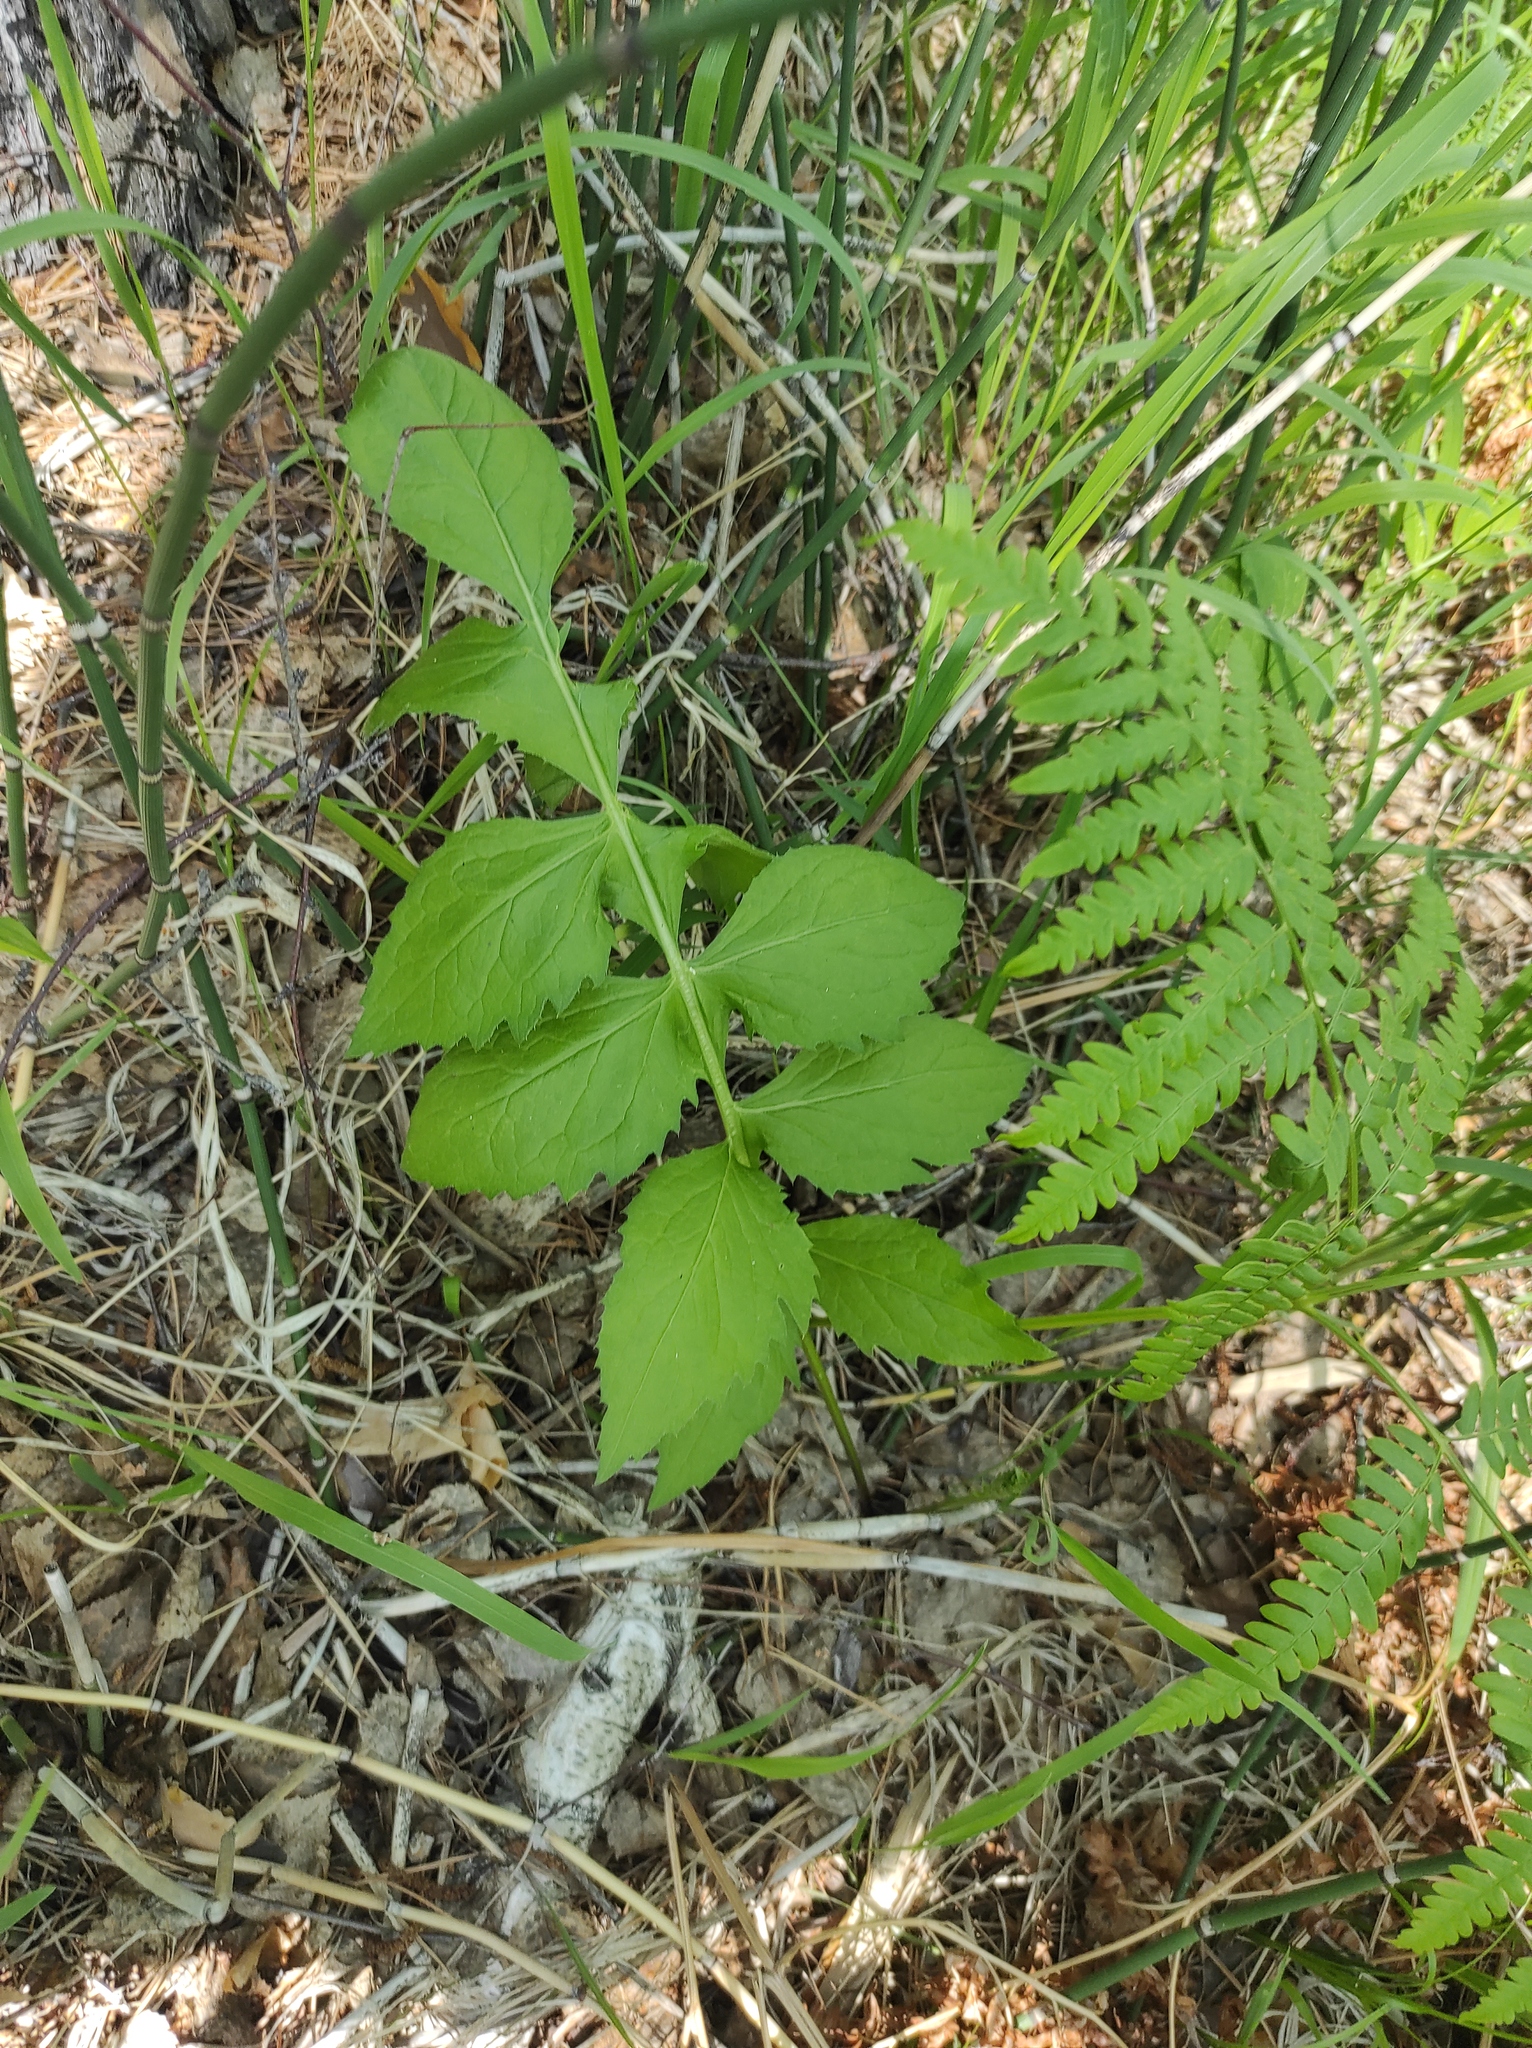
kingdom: Plantae
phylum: Tracheophyta
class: Polypodiopsida
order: Polypodiales
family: Dennstaedtiaceae
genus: Pteridium
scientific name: Pteridium aquilinum
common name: Bracken
